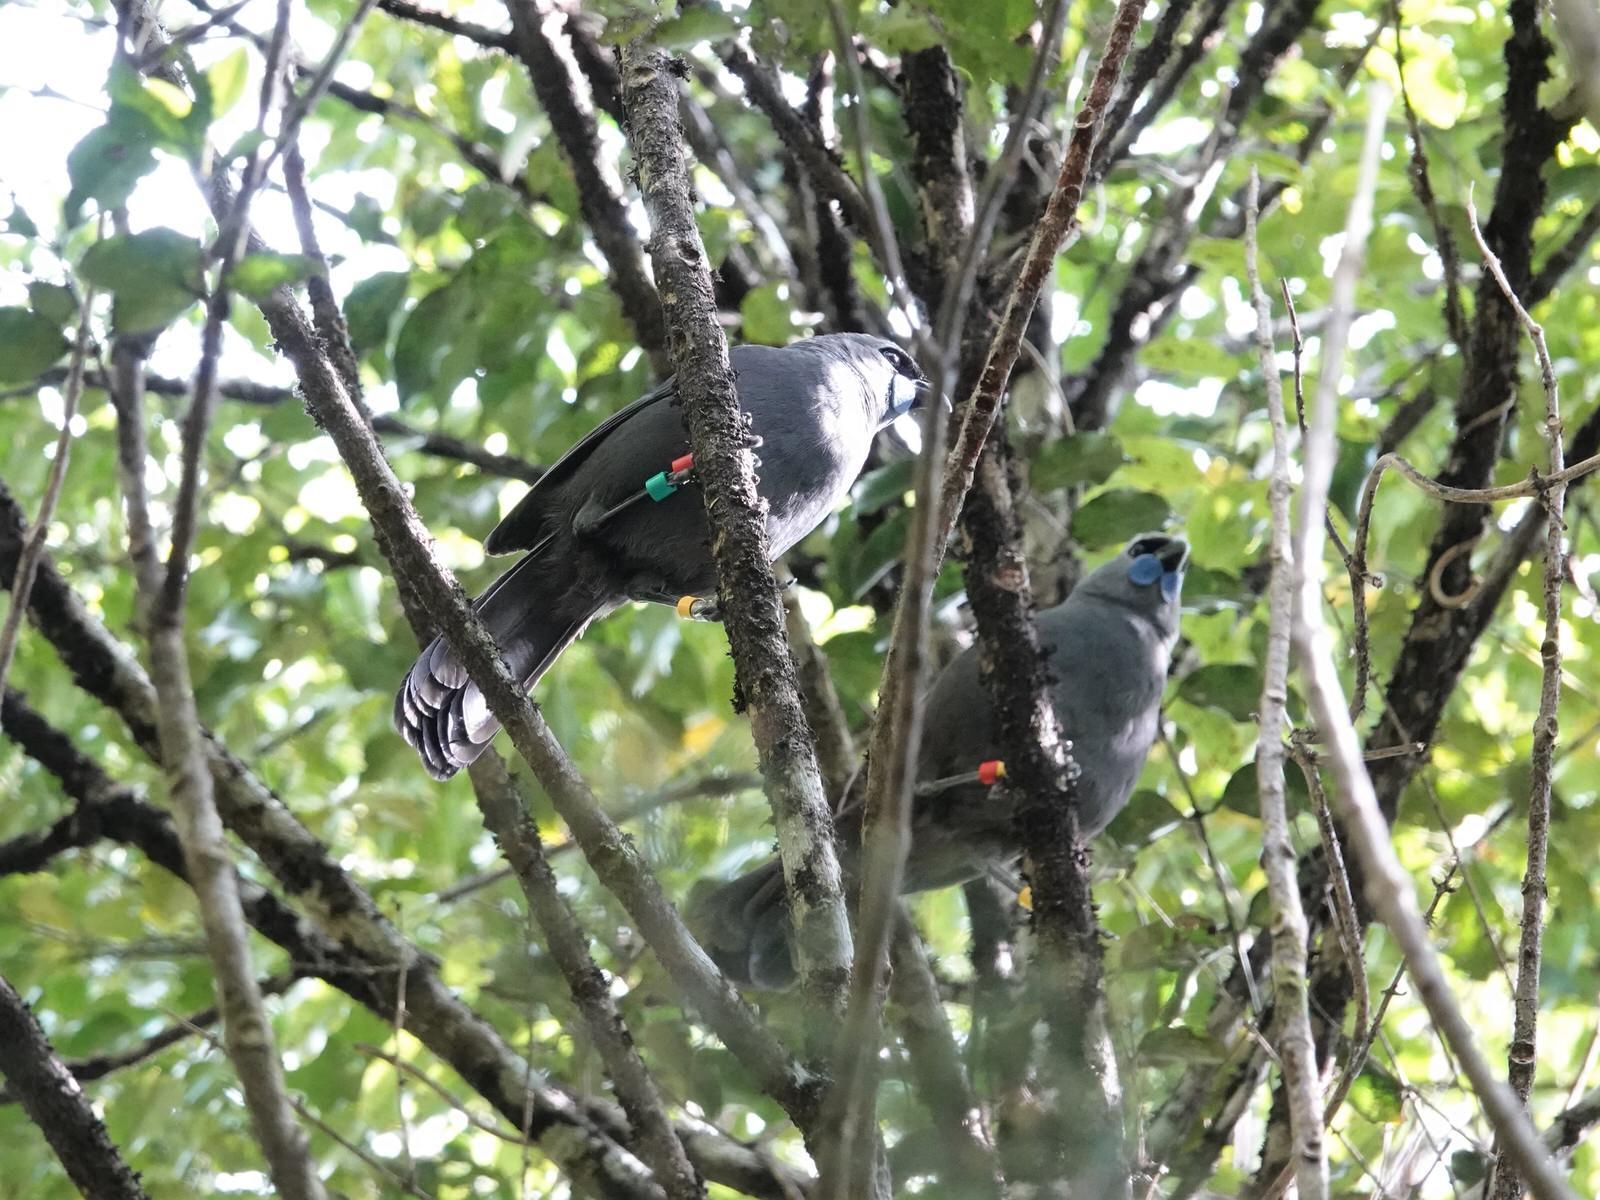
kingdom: Animalia
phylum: Chordata
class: Aves
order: Passeriformes
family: Callaeatidae
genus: Callaeas
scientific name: Callaeas cinereus
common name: South island kokako
